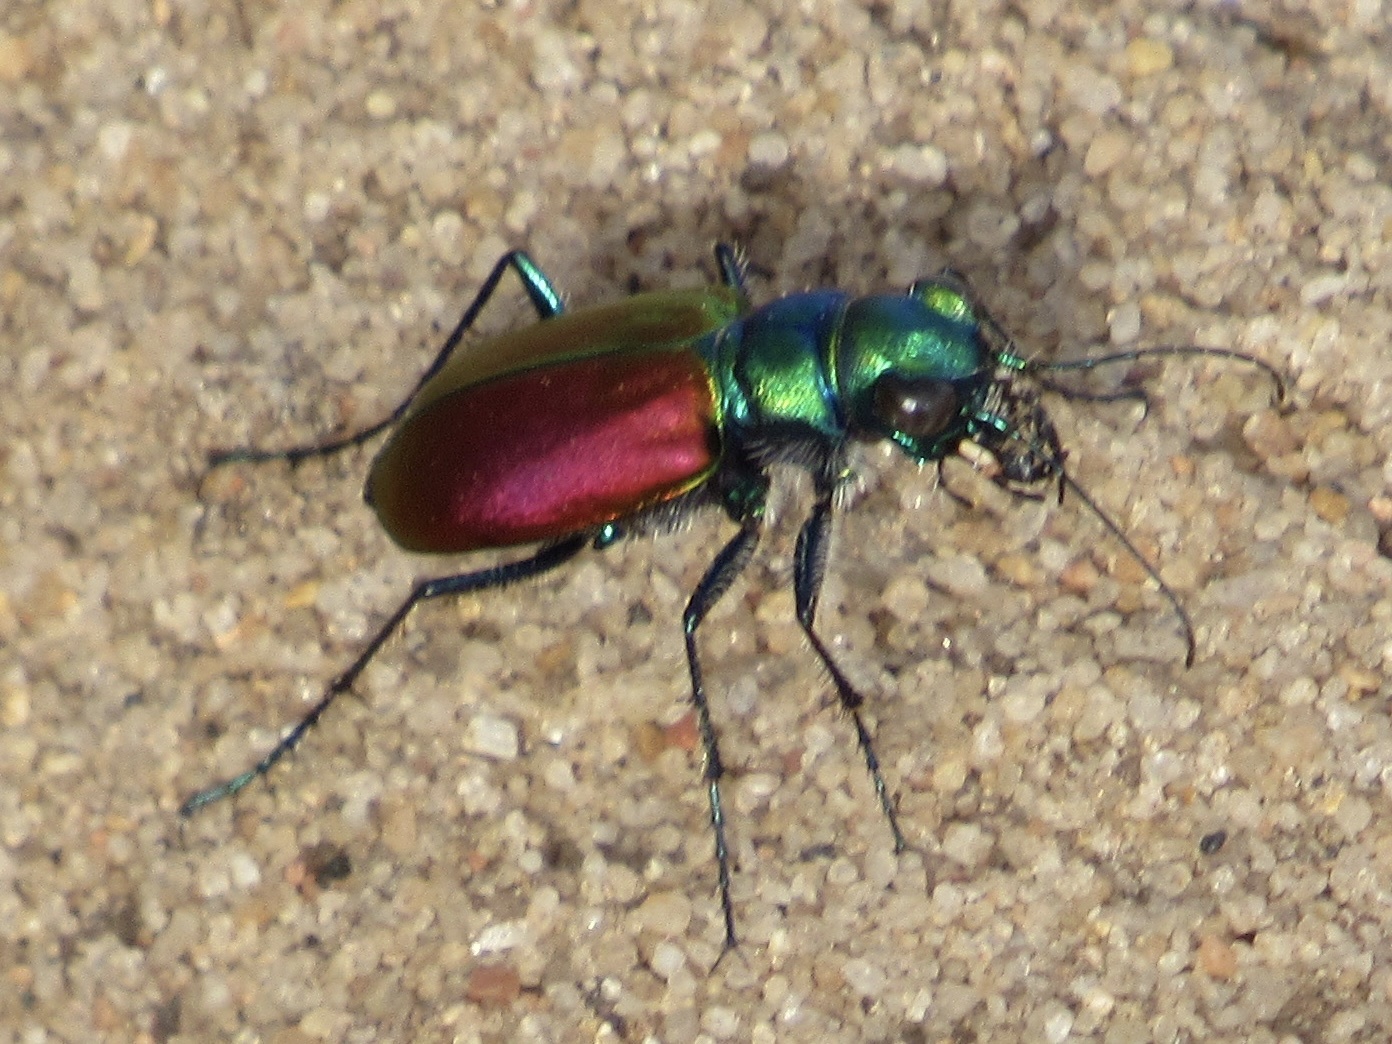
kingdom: Animalia
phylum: Arthropoda
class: Insecta
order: Coleoptera
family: Carabidae
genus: Cicindela
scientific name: Cicindela scutellaris
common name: Festive tiger beetle
